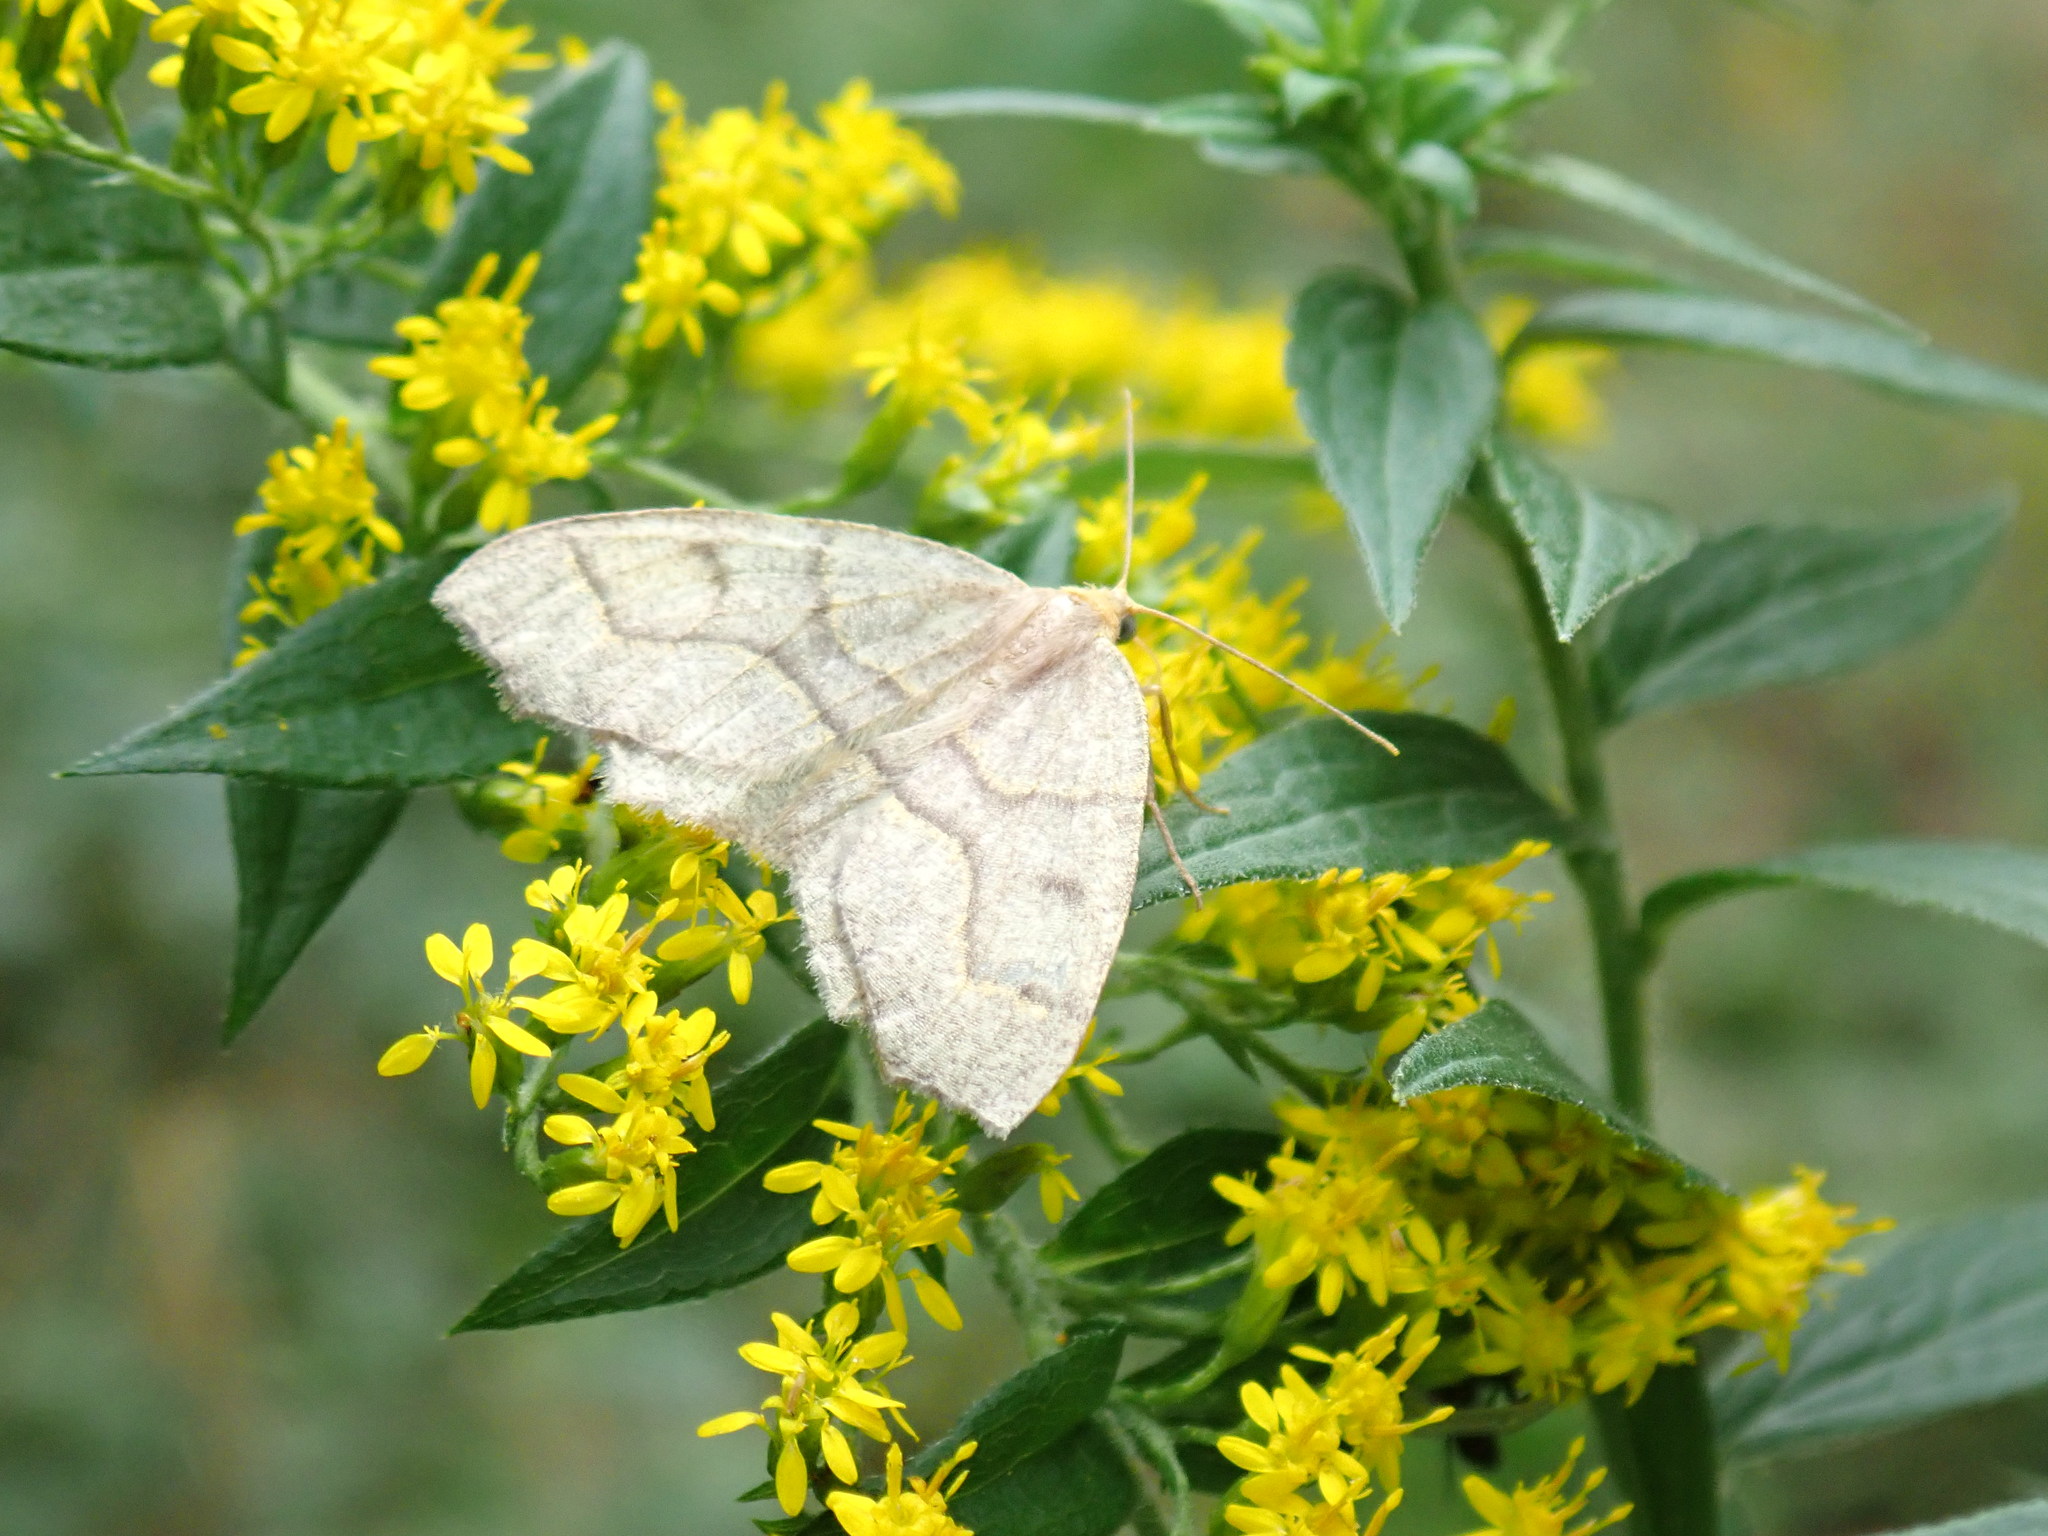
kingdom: Animalia
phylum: Arthropoda
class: Insecta
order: Lepidoptera
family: Geometridae
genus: Lambdina
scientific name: Lambdina fiscellaria
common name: Hemlock looper
